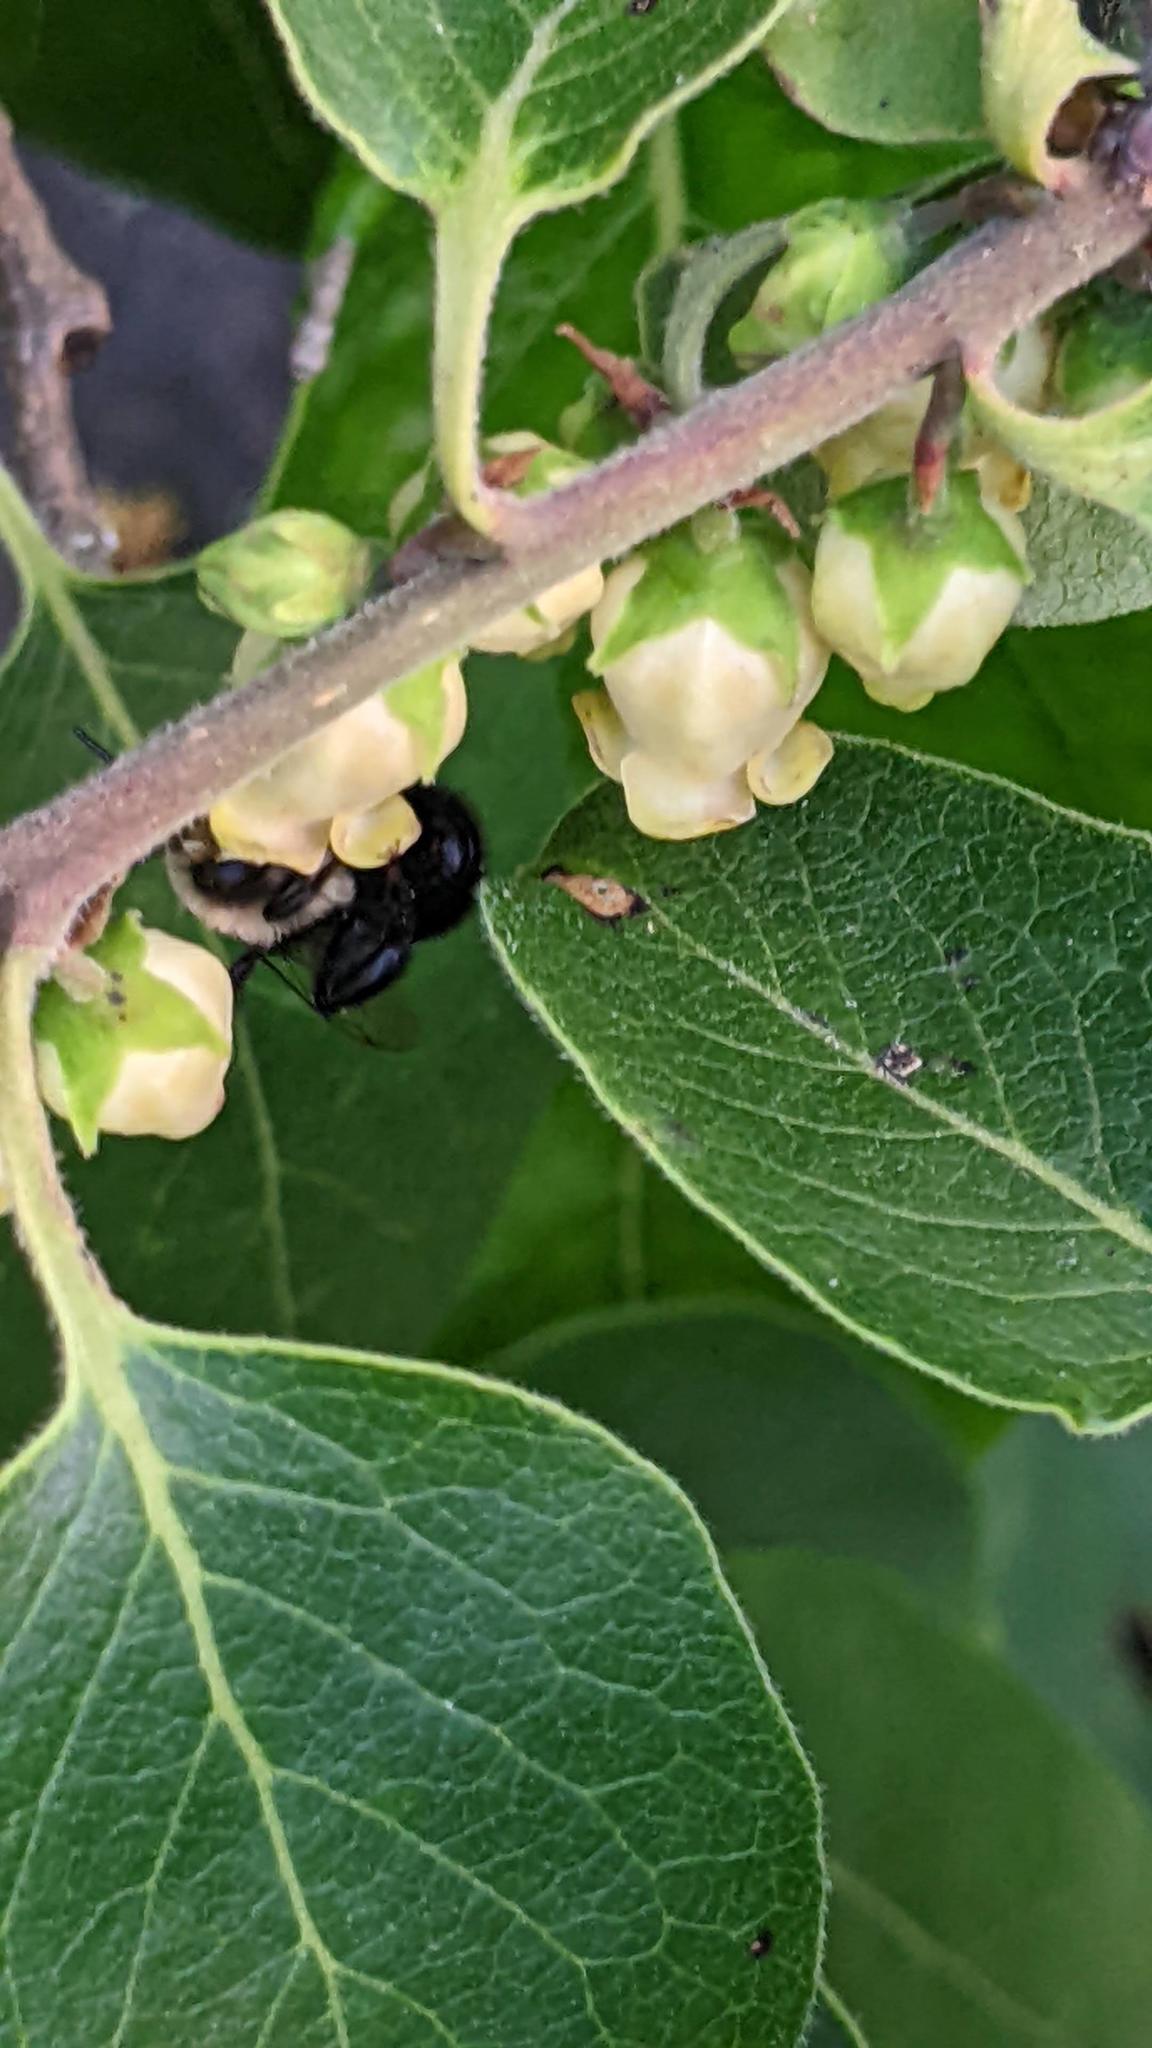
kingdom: Animalia
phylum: Arthropoda
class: Insecta
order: Hymenoptera
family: Apidae
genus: Anthophora
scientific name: Anthophora abrupta
